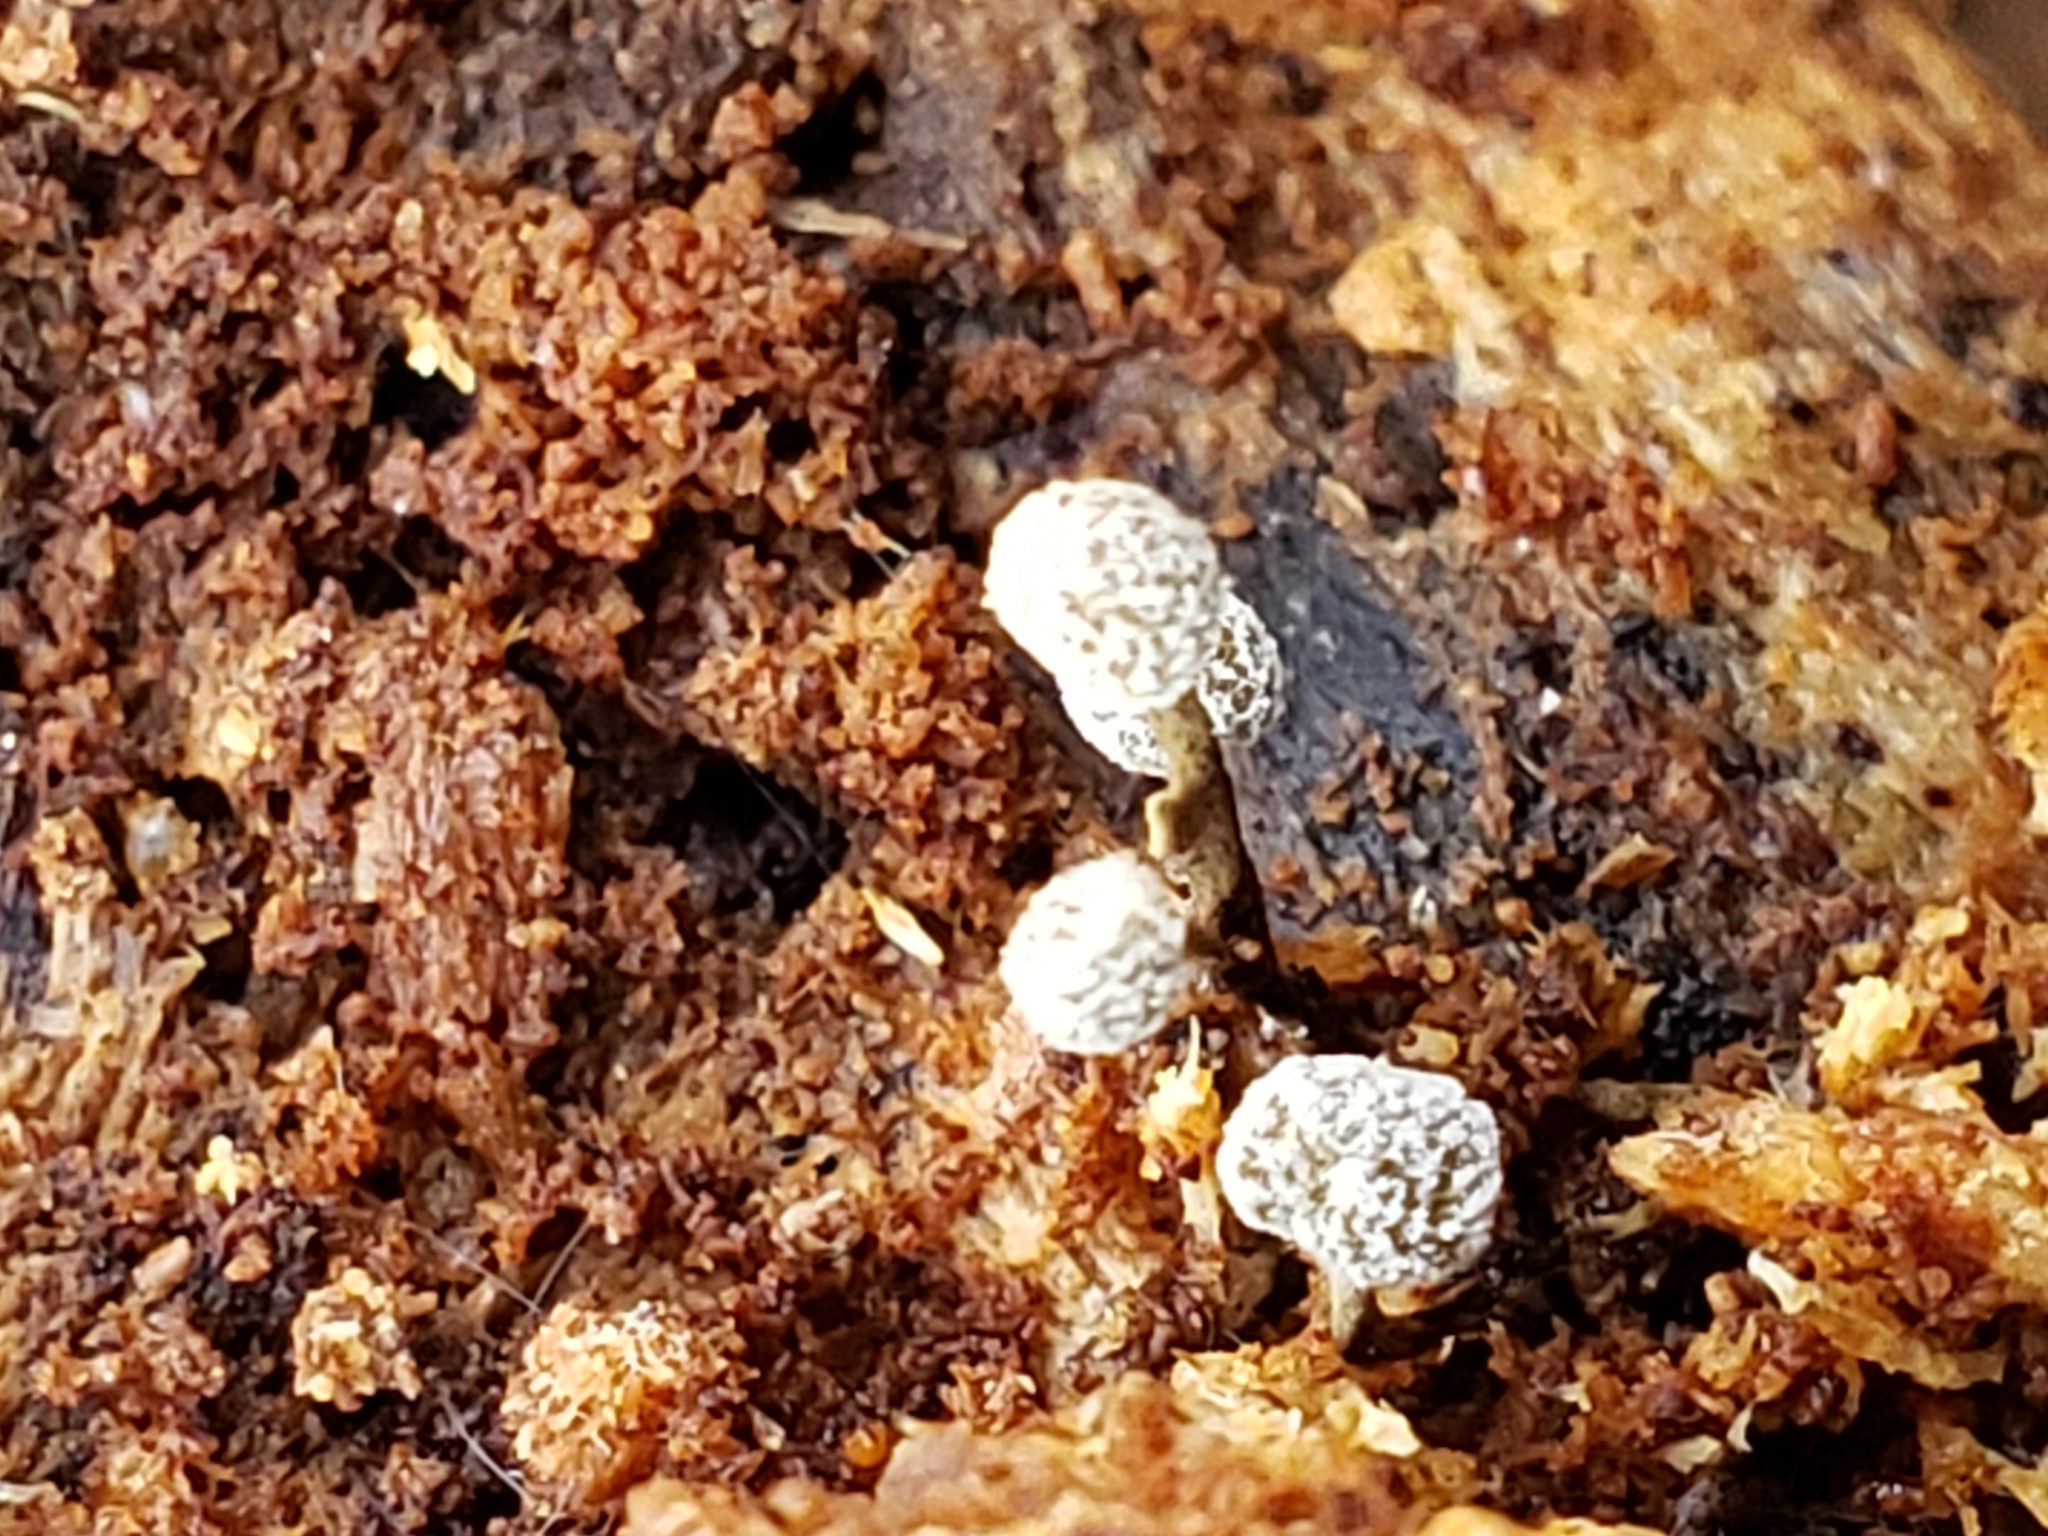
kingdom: Fungi
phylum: Basidiomycota
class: Atractiellomycetes
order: Atractiellales
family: Phleogenaceae
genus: Phleogena
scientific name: Phleogena faginea
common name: Fenugreek stalkball
